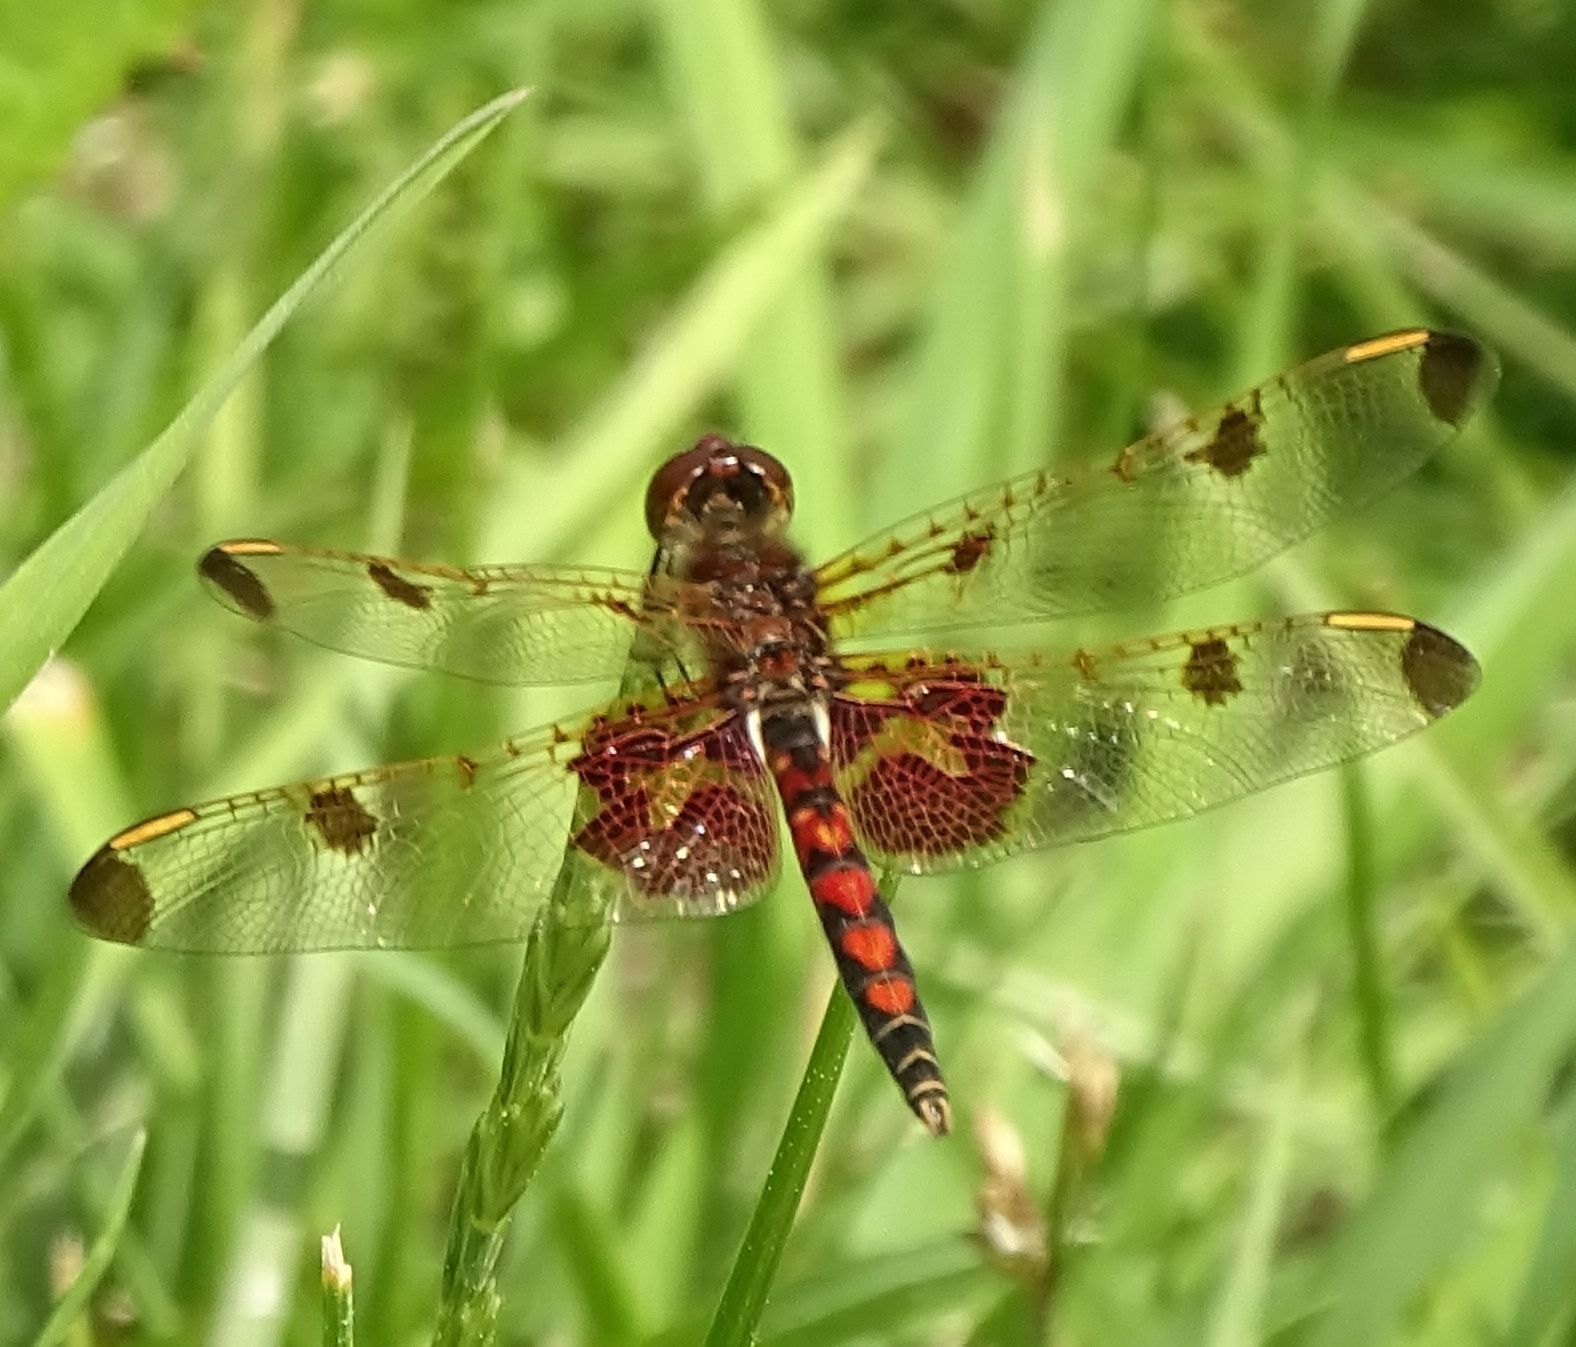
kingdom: Animalia
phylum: Arthropoda
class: Insecta
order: Odonata
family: Libellulidae
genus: Celithemis
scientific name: Celithemis elisa
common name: Calico pennant
